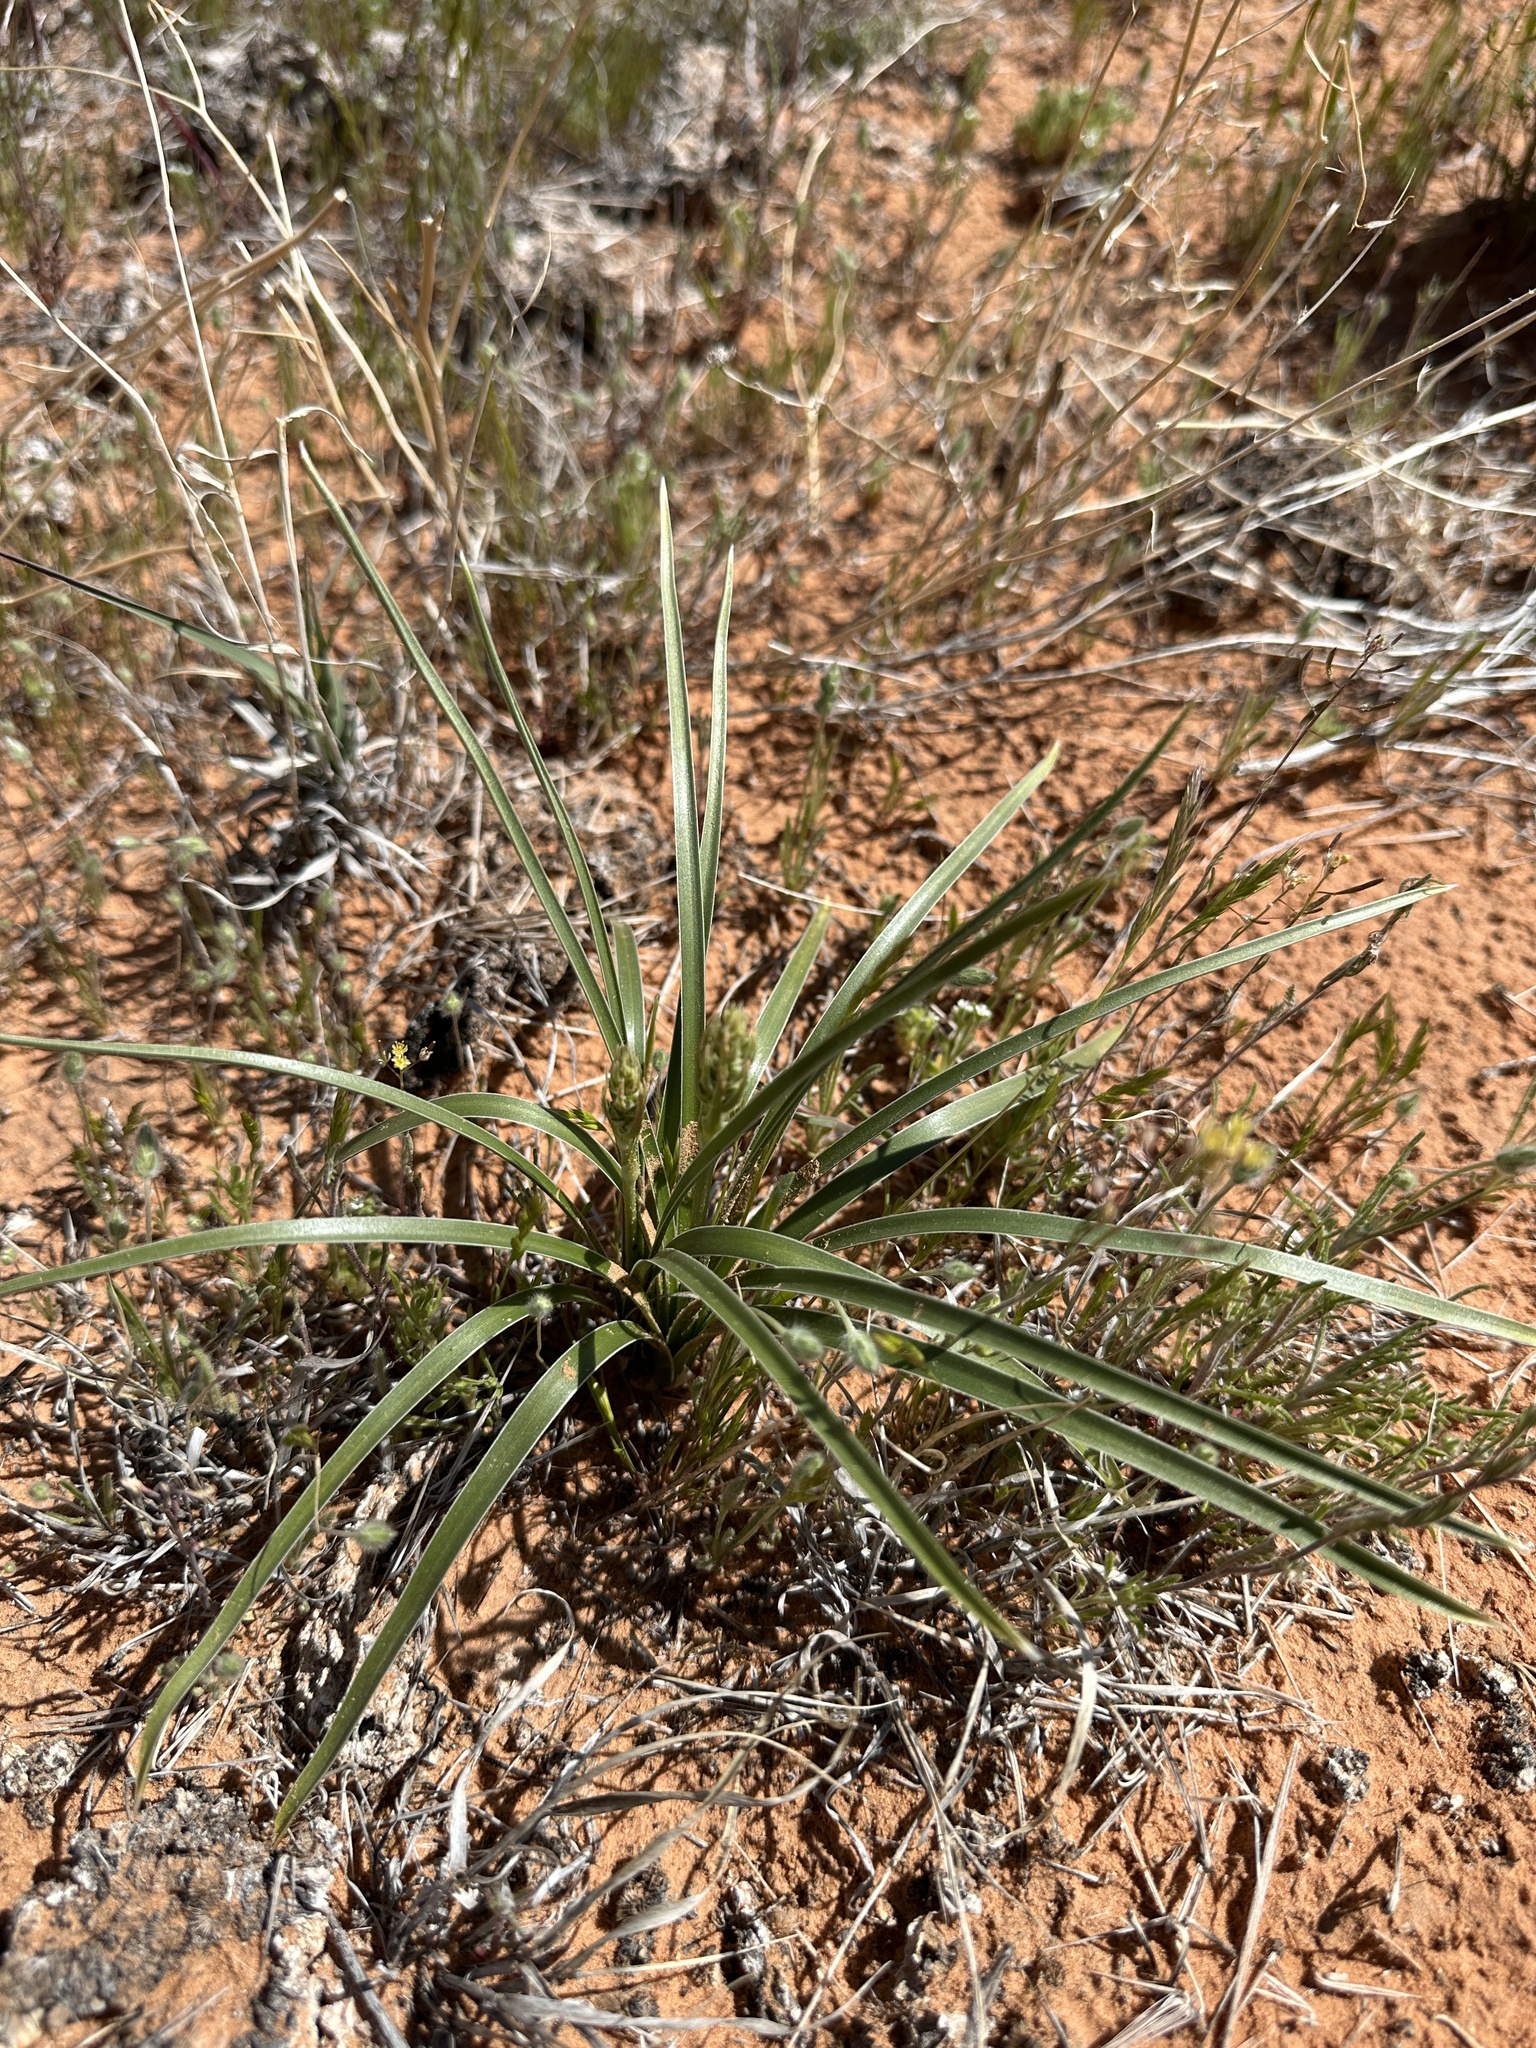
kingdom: Plantae
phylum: Tracheophyta
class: Liliopsida
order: Asparagales
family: Asparagaceae
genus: Eremocrinum
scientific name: Eremocrinum albomarginatum
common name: Sand-lily
